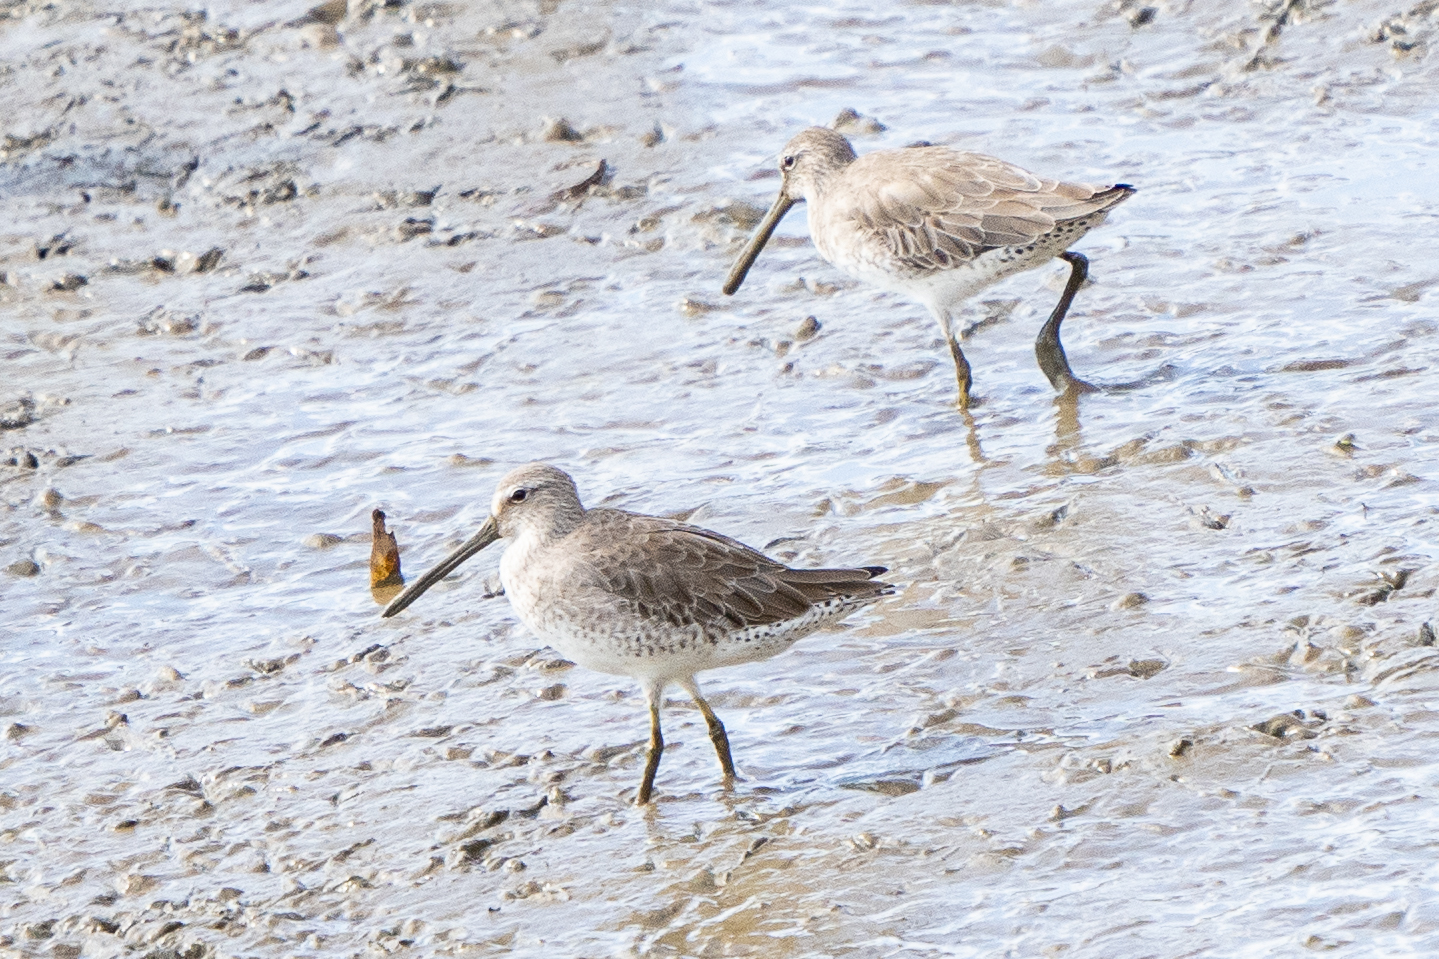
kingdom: Animalia
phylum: Chordata
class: Aves
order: Charadriiformes
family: Scolopacidae
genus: Limnodromus
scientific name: Limnodromus griseus
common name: Short-billed dowitcher
